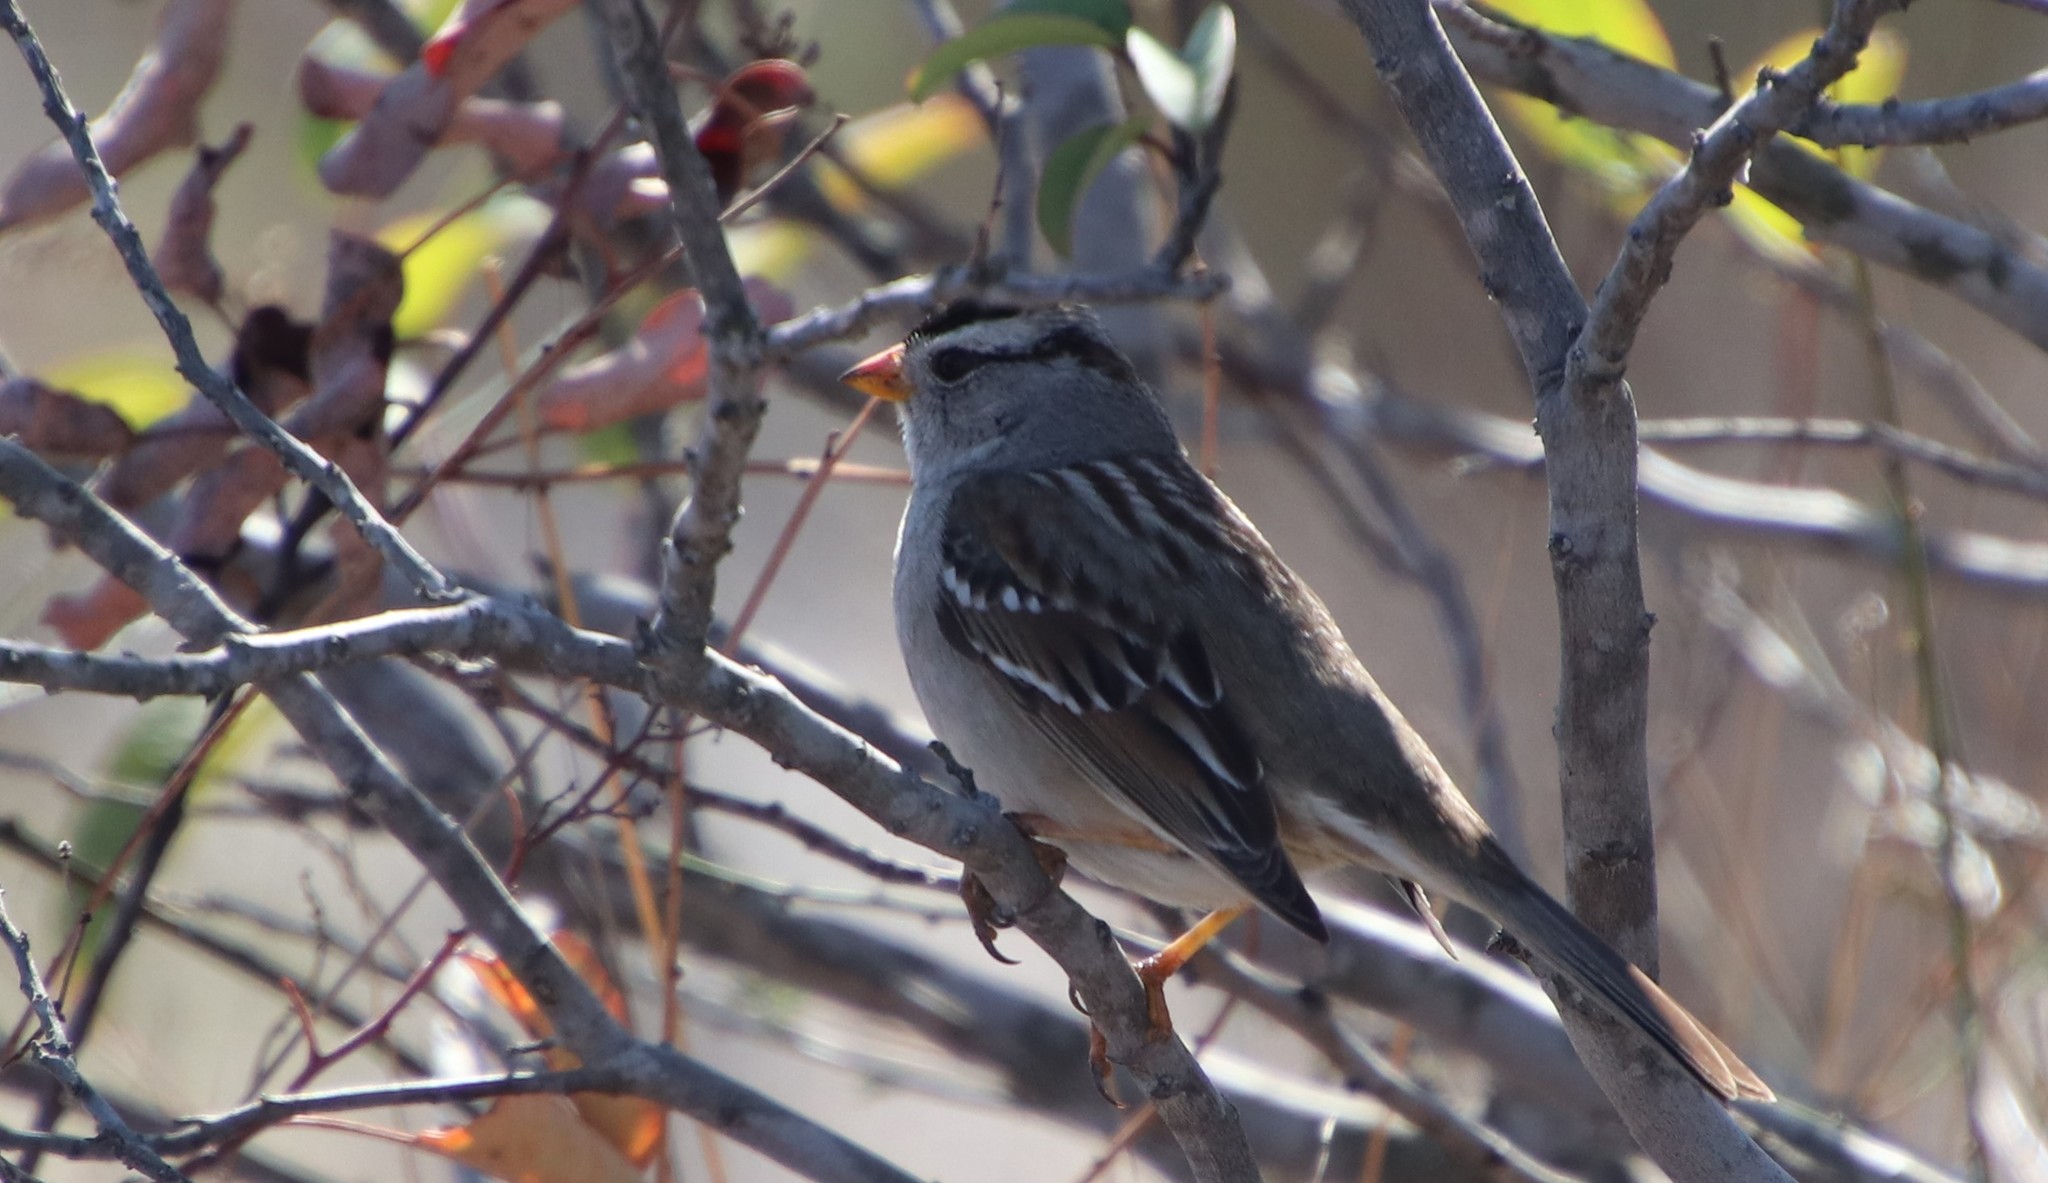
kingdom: Animalia
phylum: Chordata
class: Aves
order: Passeriformes
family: Passerellidae
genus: Zonotrichia
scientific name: Zonotrichia leucophrys
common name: White-crowned sparrow
